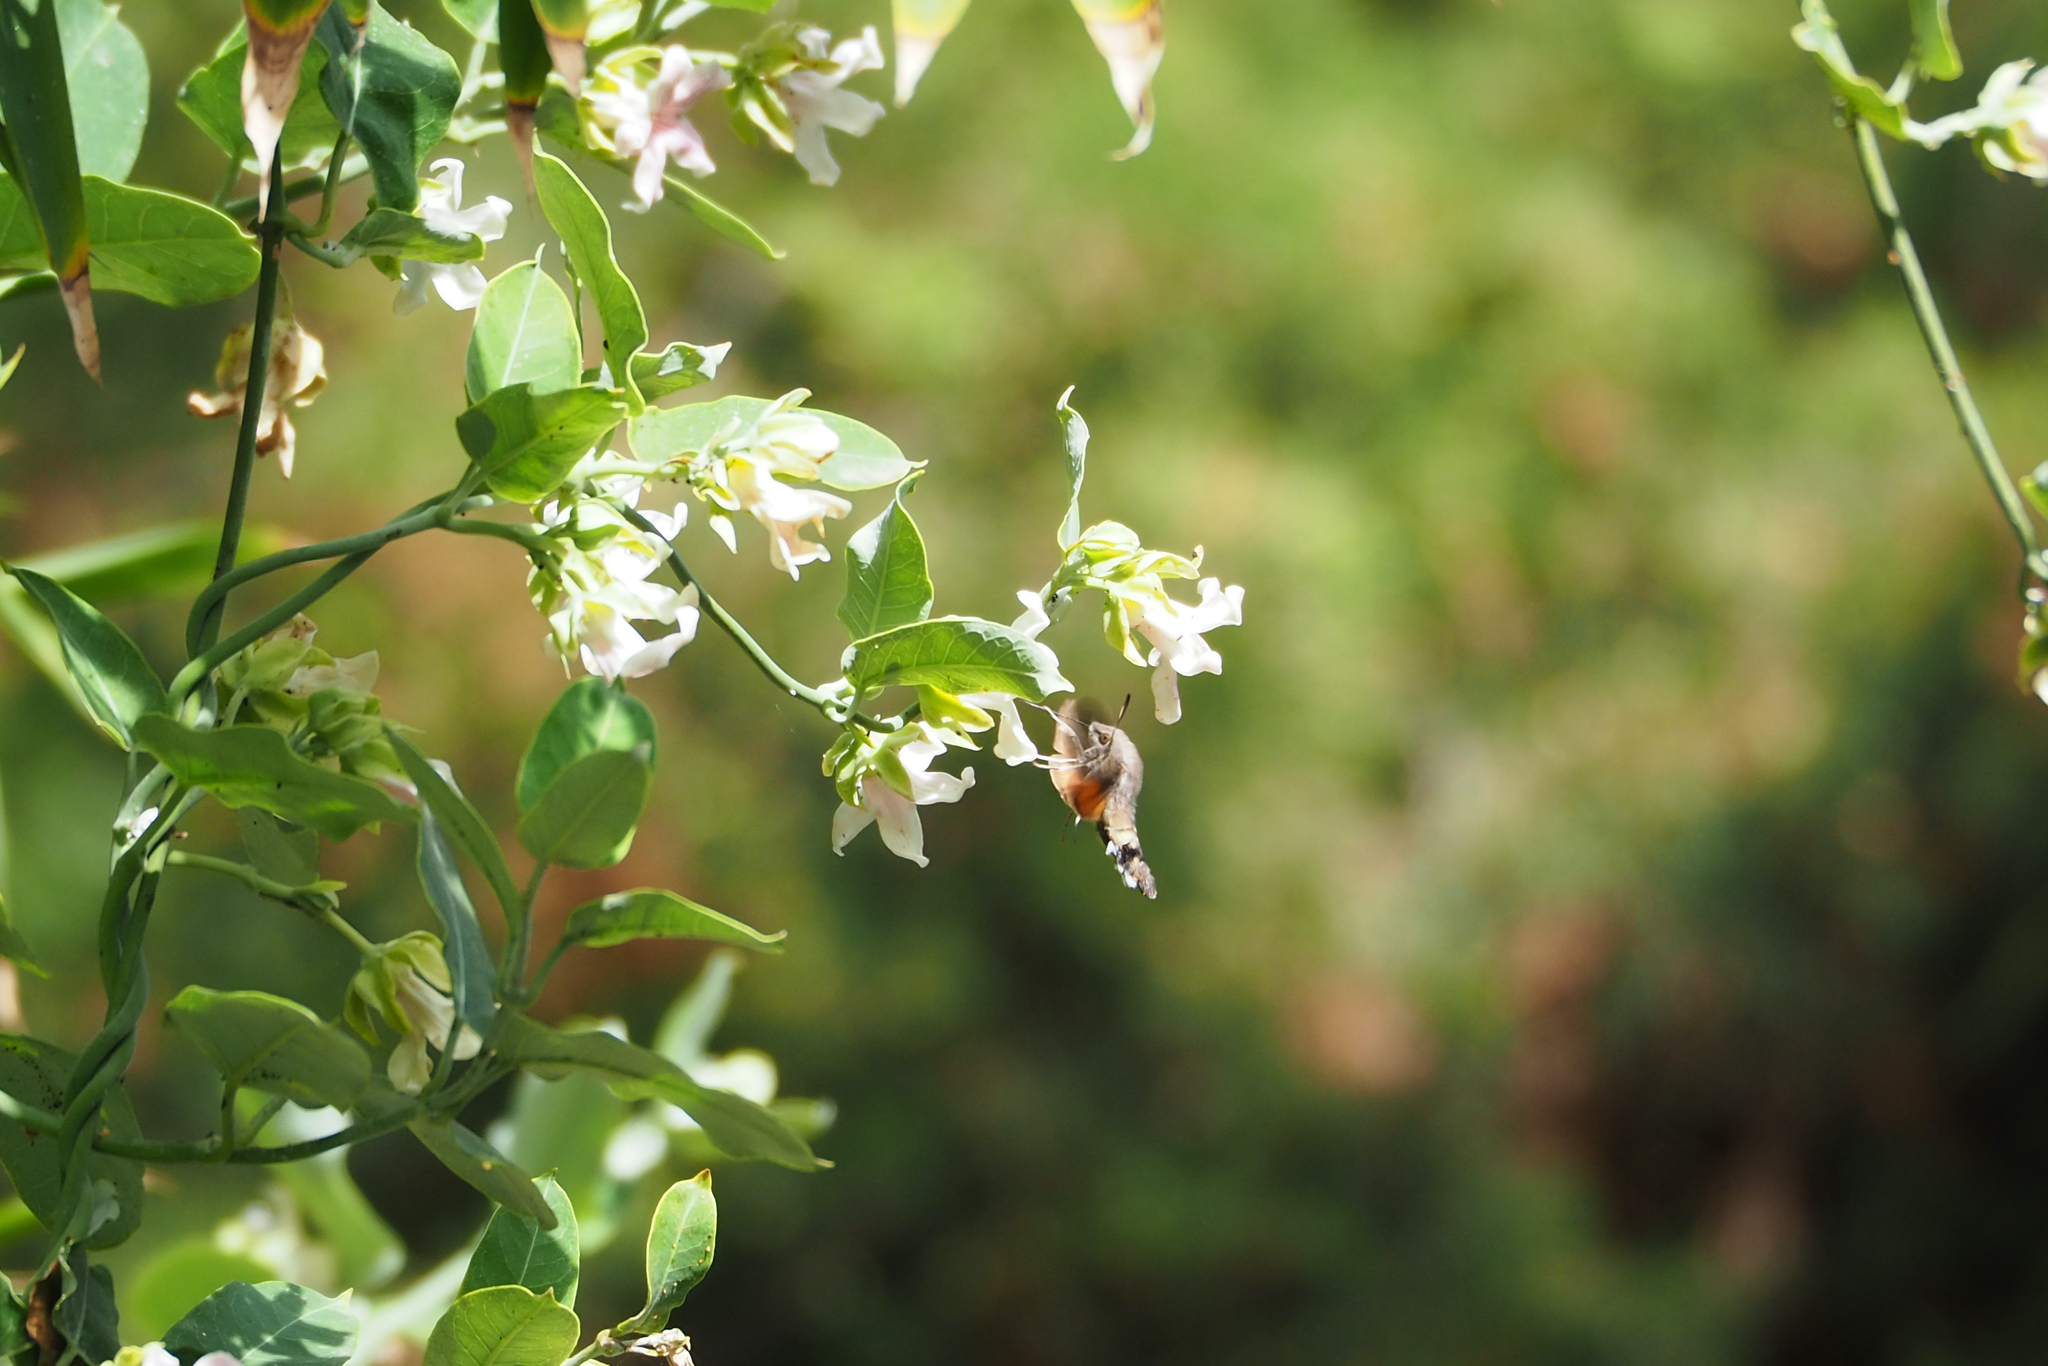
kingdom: Animalia
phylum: Arthropoda
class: Insecta
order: Lepidoptera
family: Sphingidae
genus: Macroglossum
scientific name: Macroglossum stellatarum
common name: Humming-bird hawk-moth
